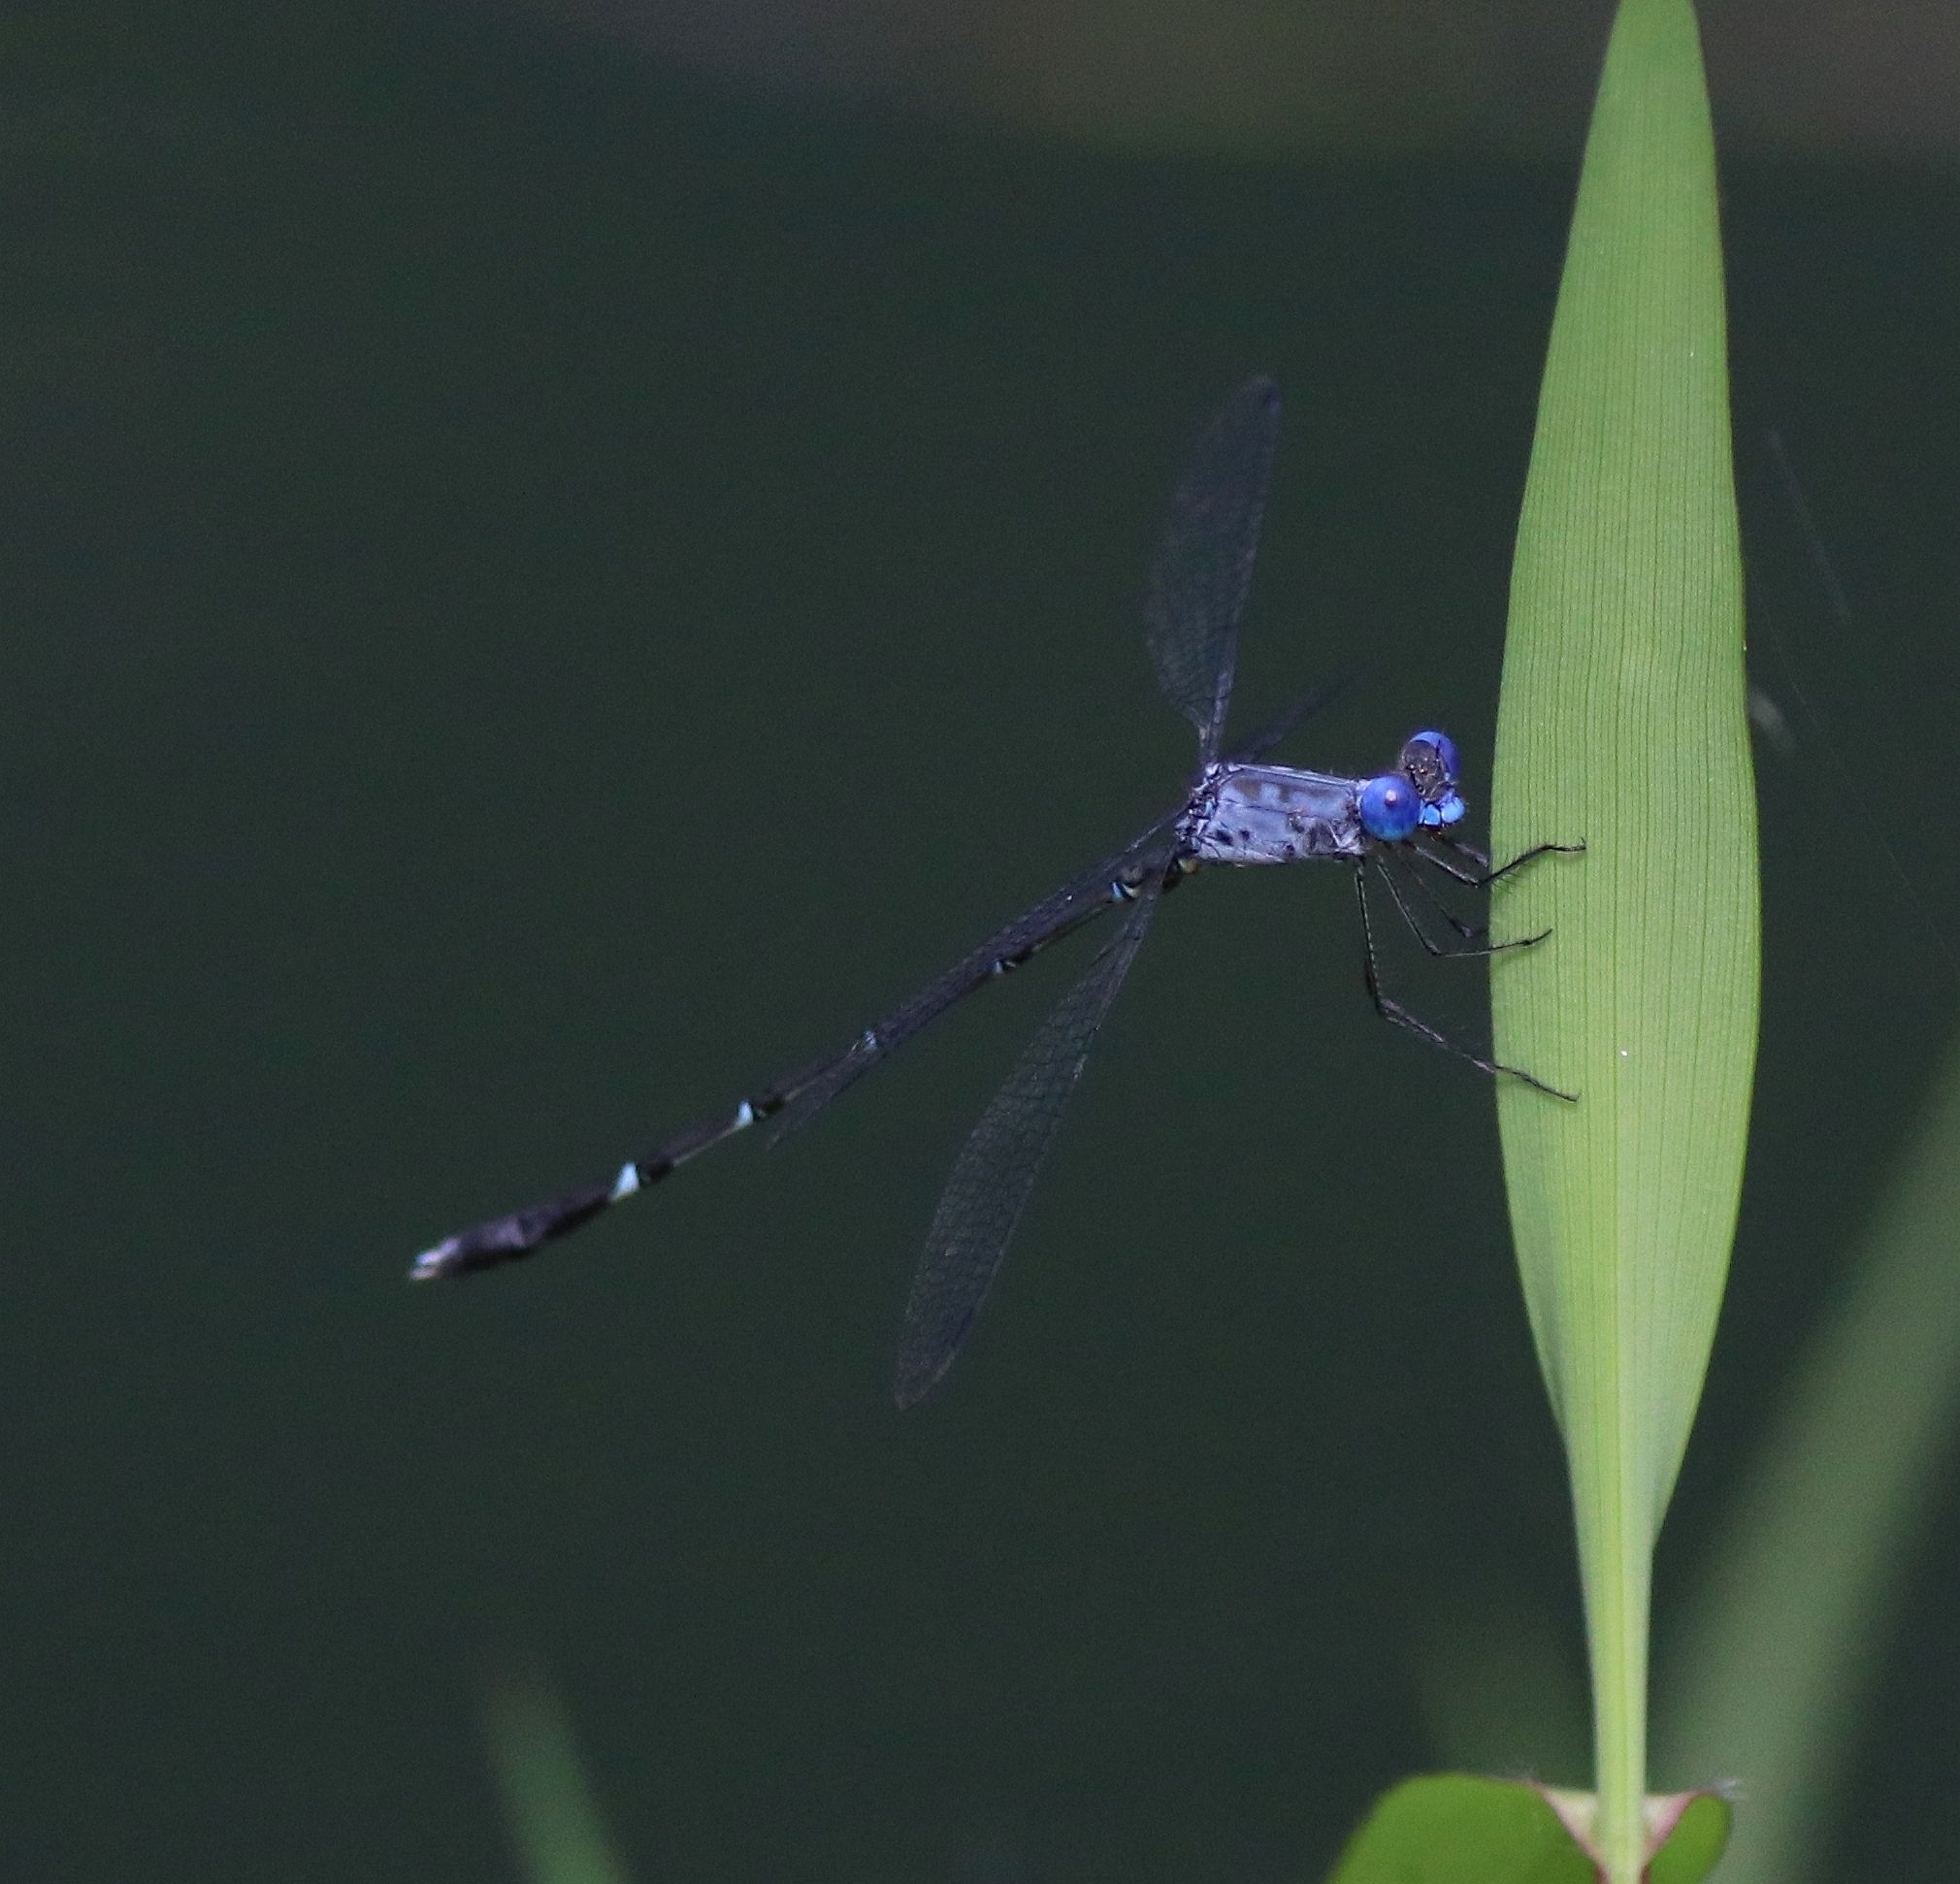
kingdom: Animalia
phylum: Arthropoda
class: Insecta
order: Odonata
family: Lestidae
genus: Lestes
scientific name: Lestes dorothea
